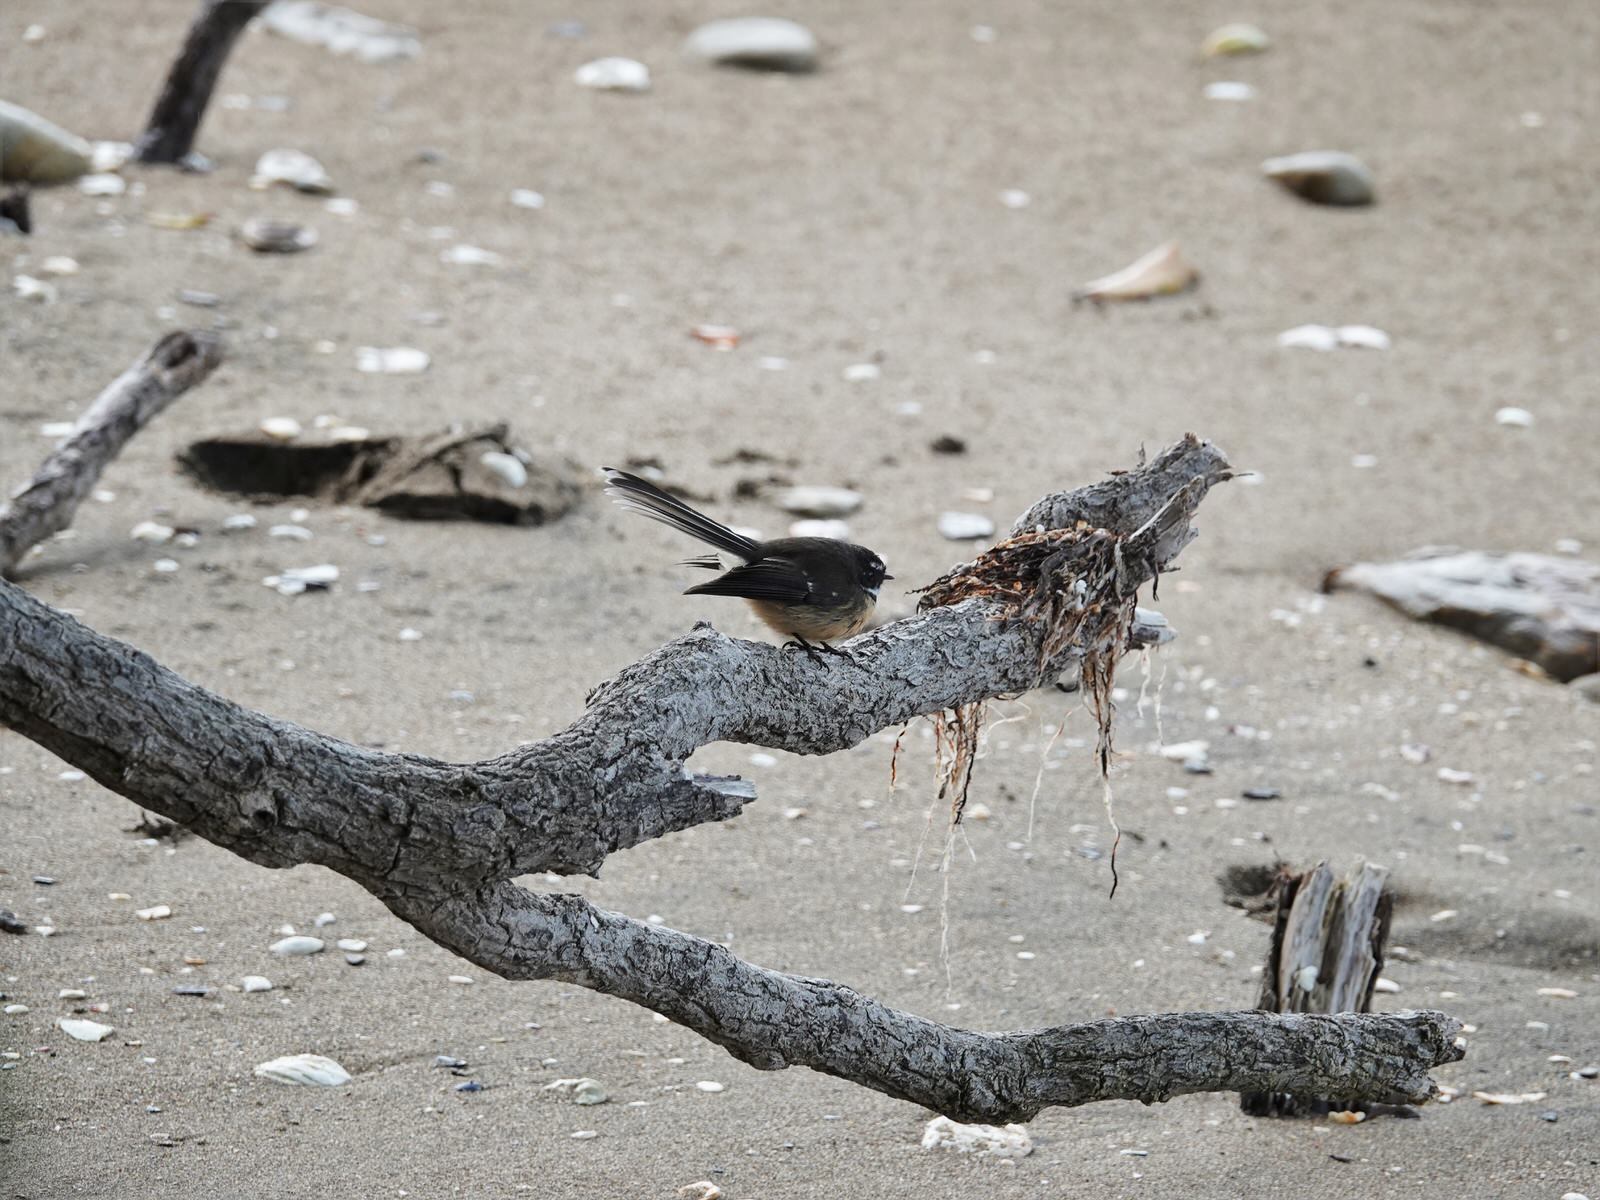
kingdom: Animalia
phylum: Chordata
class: Aves
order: Passeriformes
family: Rhipiduridae
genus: Rhipidura
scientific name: Rhipidura fuliginosa
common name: New zealand fantail
